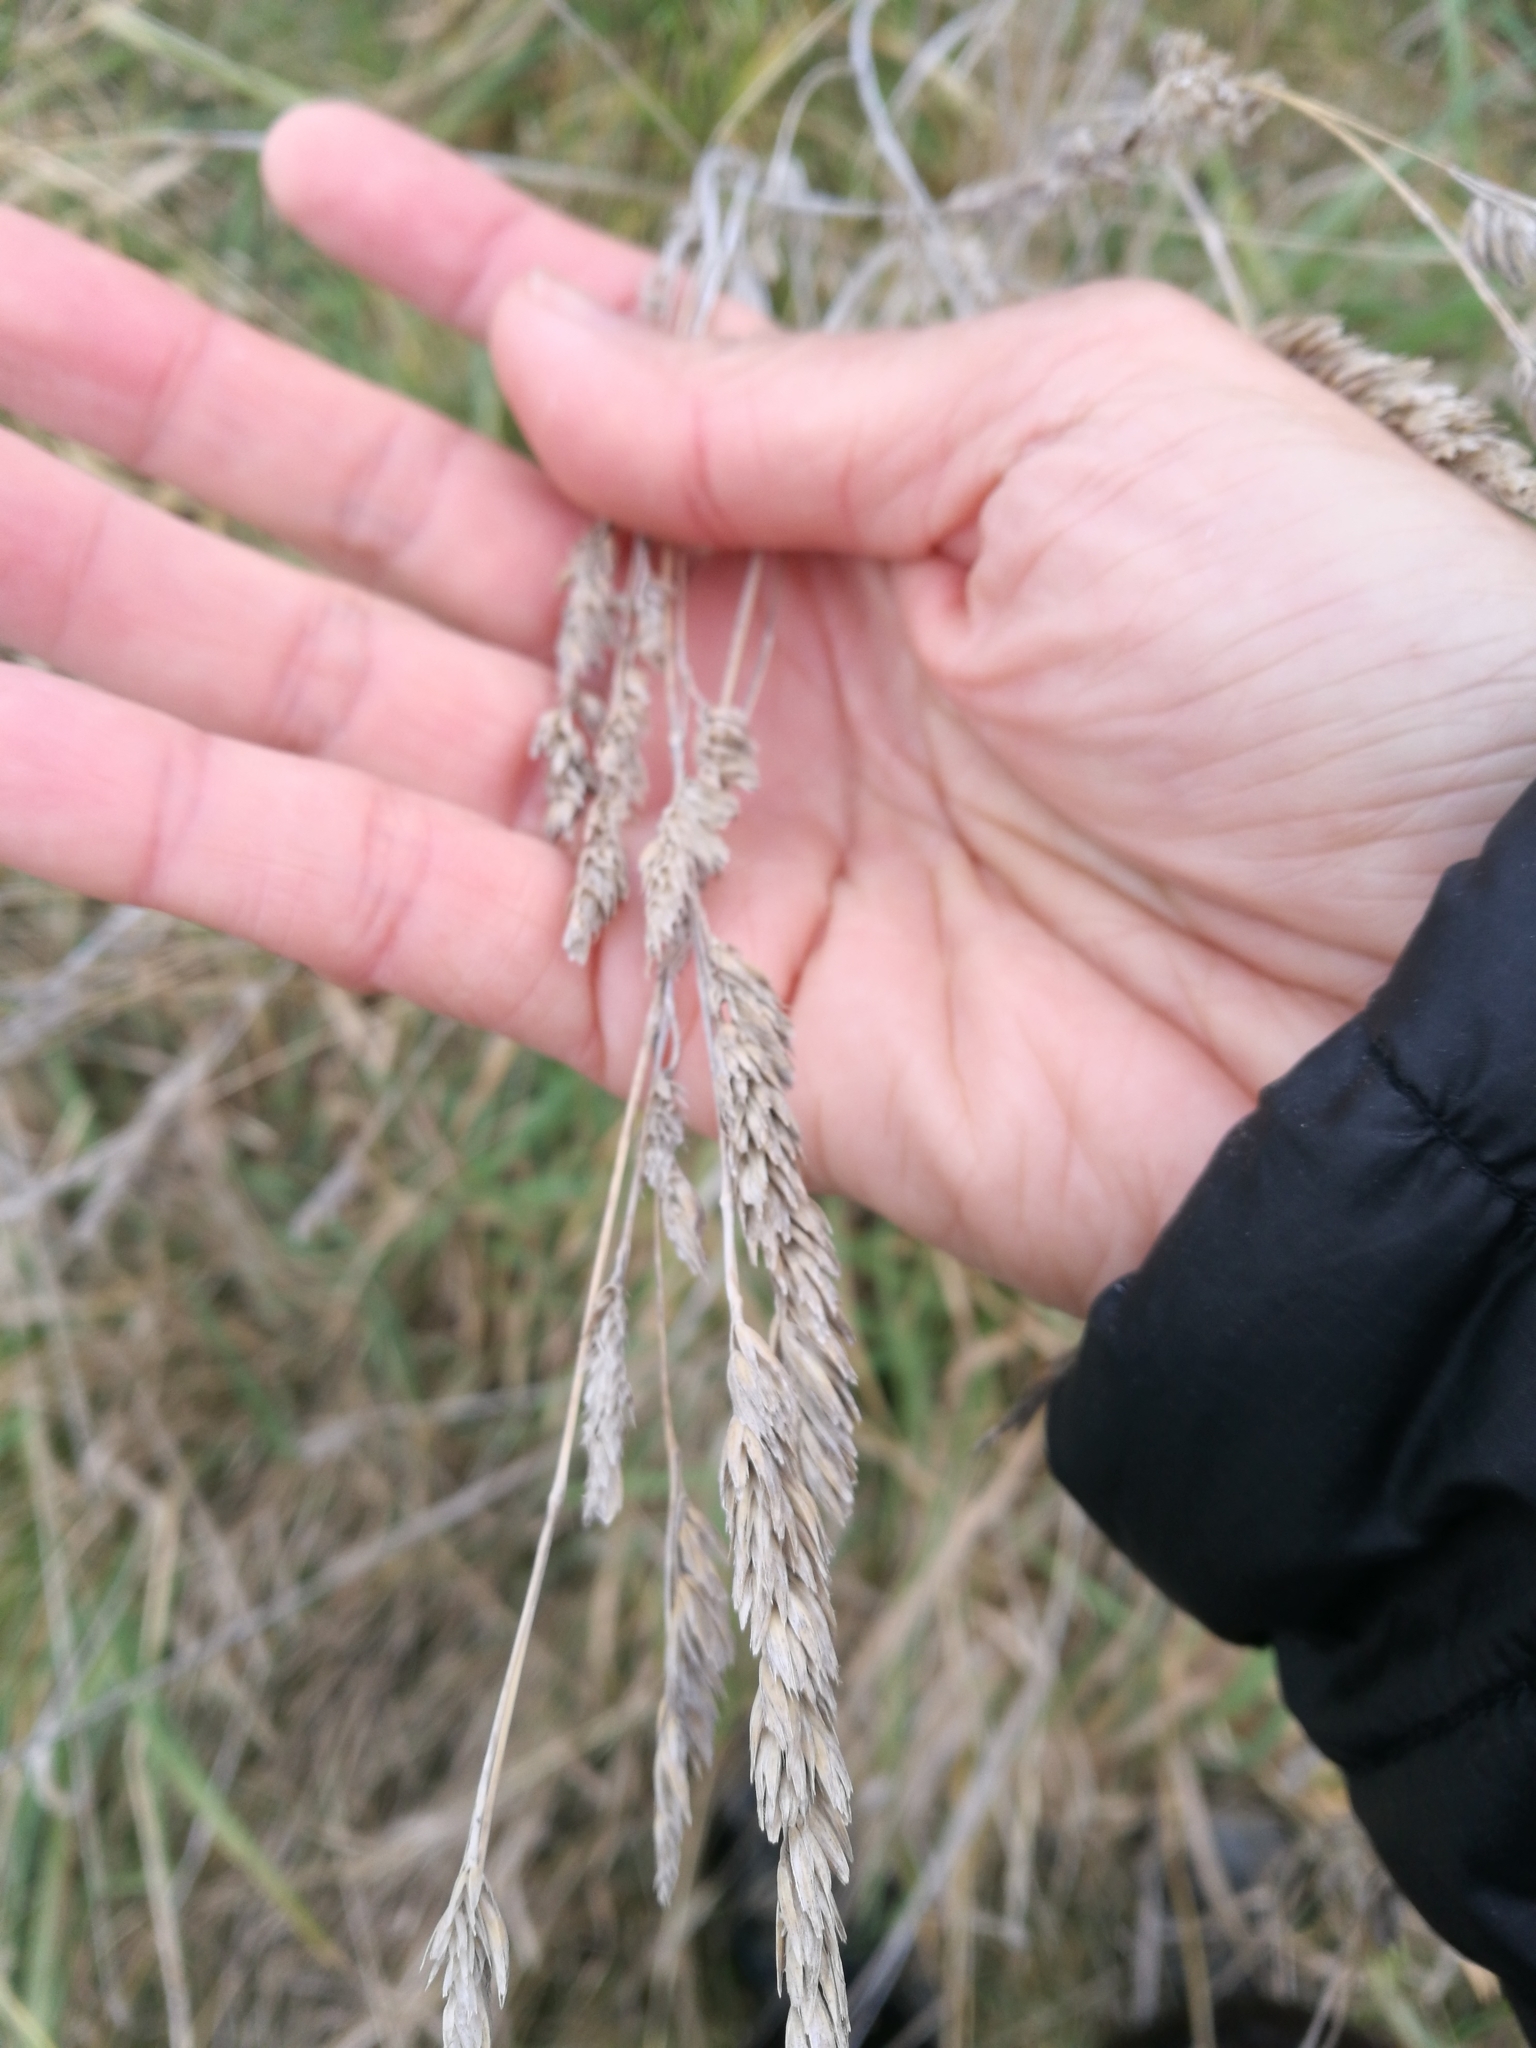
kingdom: Plantae
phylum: Tracheophyta
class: Liliopsida
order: Poales
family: Poaceae
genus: Dactylis
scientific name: Dactylis glomerata
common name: Orchardgrass
